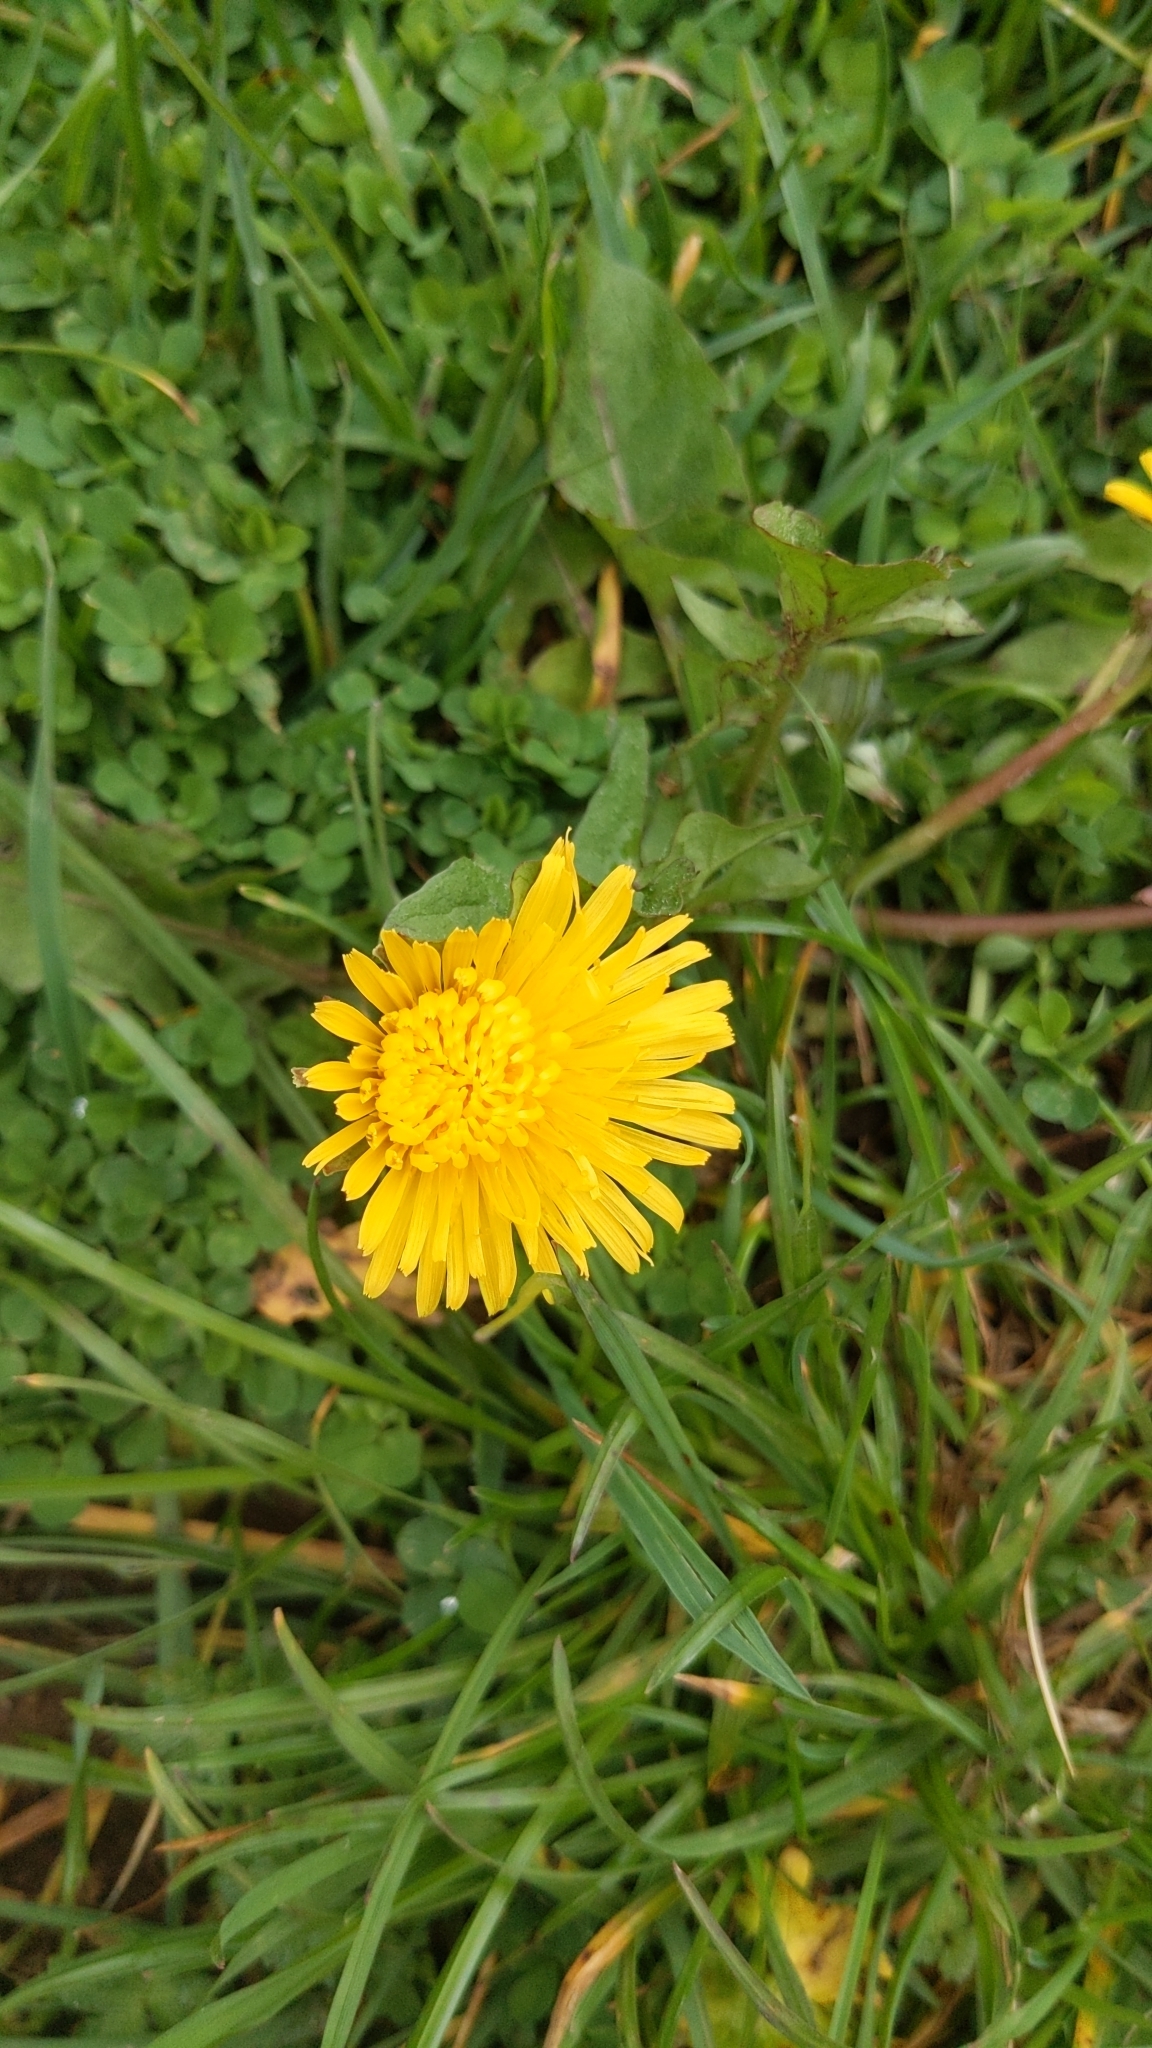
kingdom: Plantae
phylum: Tracheophyta
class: Magnoliopsida
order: Asterales
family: Asteraceae
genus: Taraxacum
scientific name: Taraxacum officinale
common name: Common dandelion
